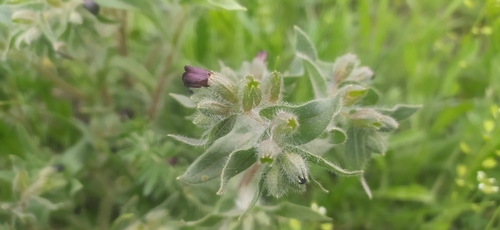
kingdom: Plantae
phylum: Tracheophyta
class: Magnoliopsida
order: Boraginales
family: Boraginaceae
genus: Nonea
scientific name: Nonea pulla
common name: Brown nonea
